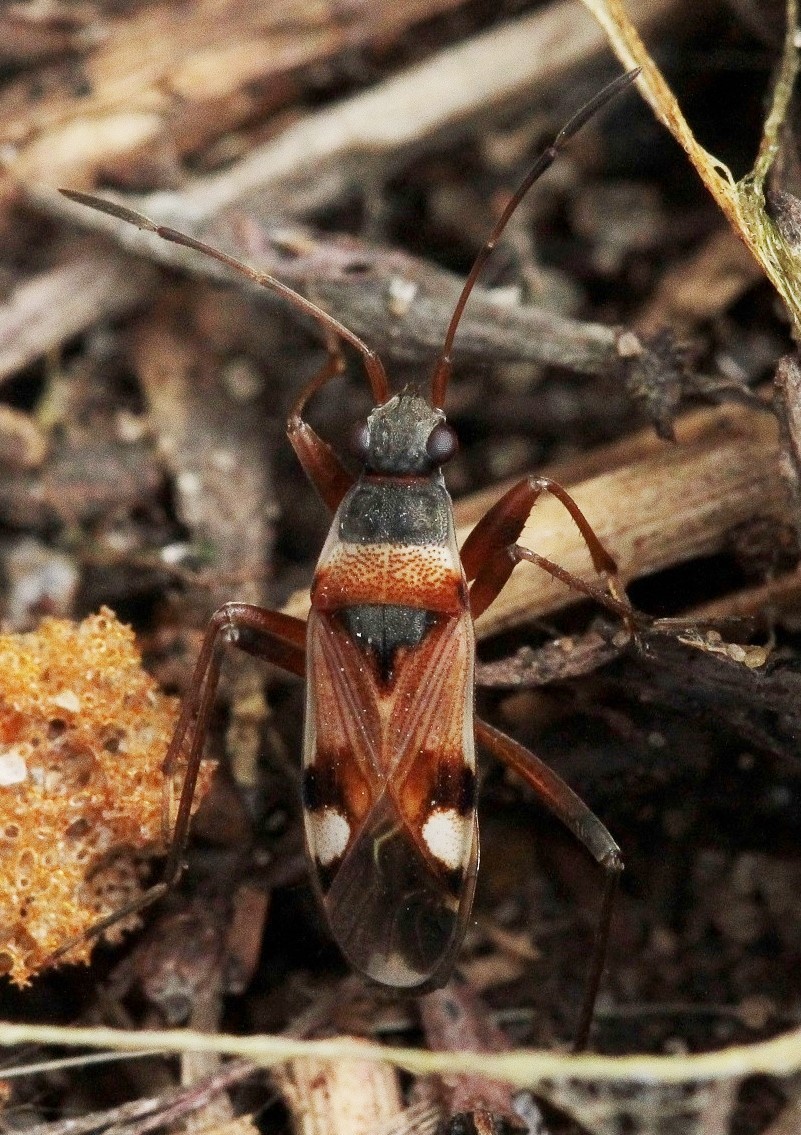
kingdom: Animalia
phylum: Arthropoda
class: Insecta
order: Hemiptera
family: Rhyparochromidae
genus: Beosus
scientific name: Beosus quadripunctatus
